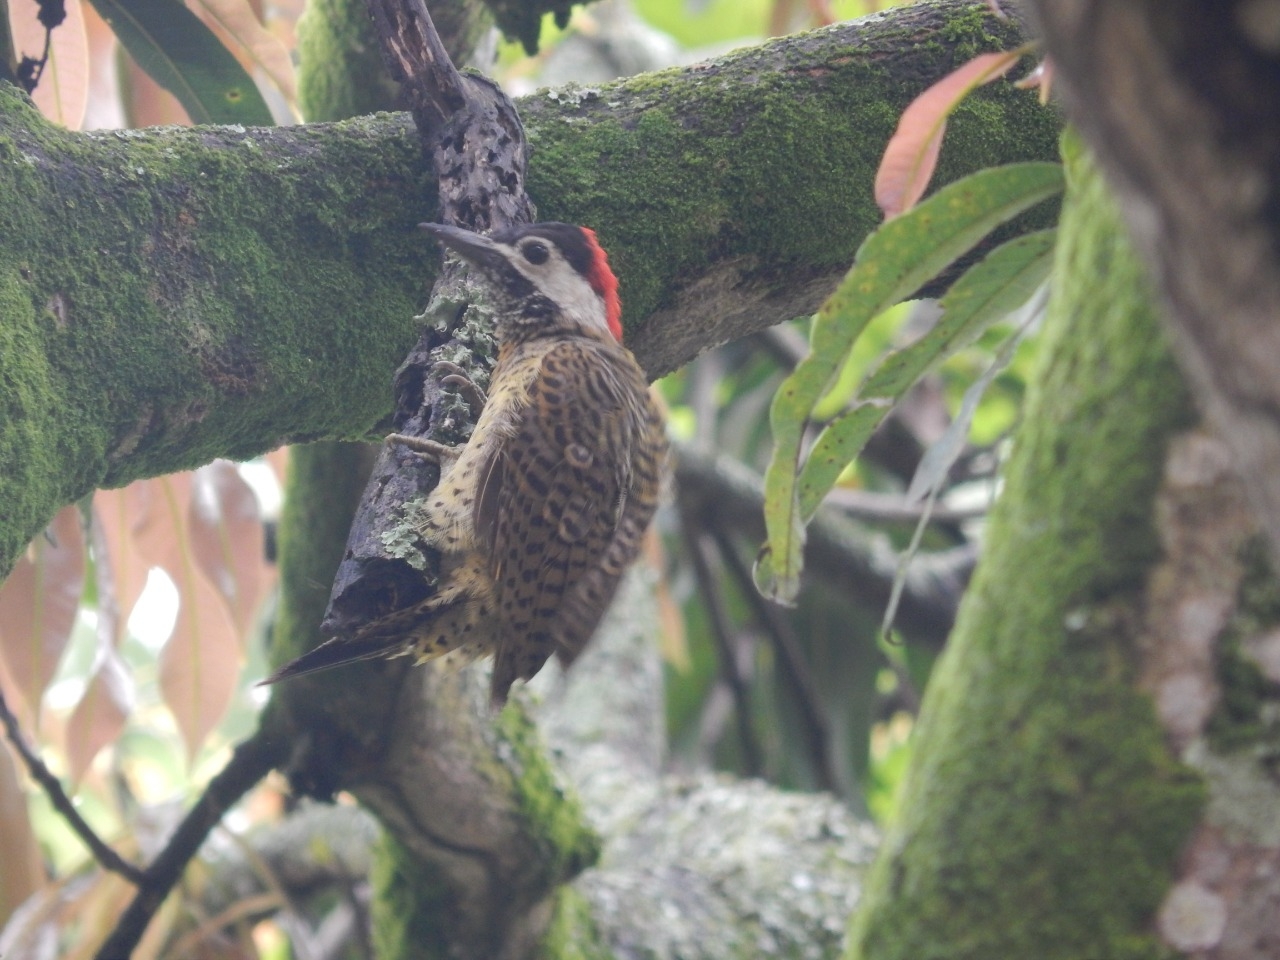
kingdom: Animalia
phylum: Chordata
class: Aves
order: Piciformes
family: Picidae
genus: Colaptes
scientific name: Colaptes punctigula
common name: Spot-breasted woodpecker
